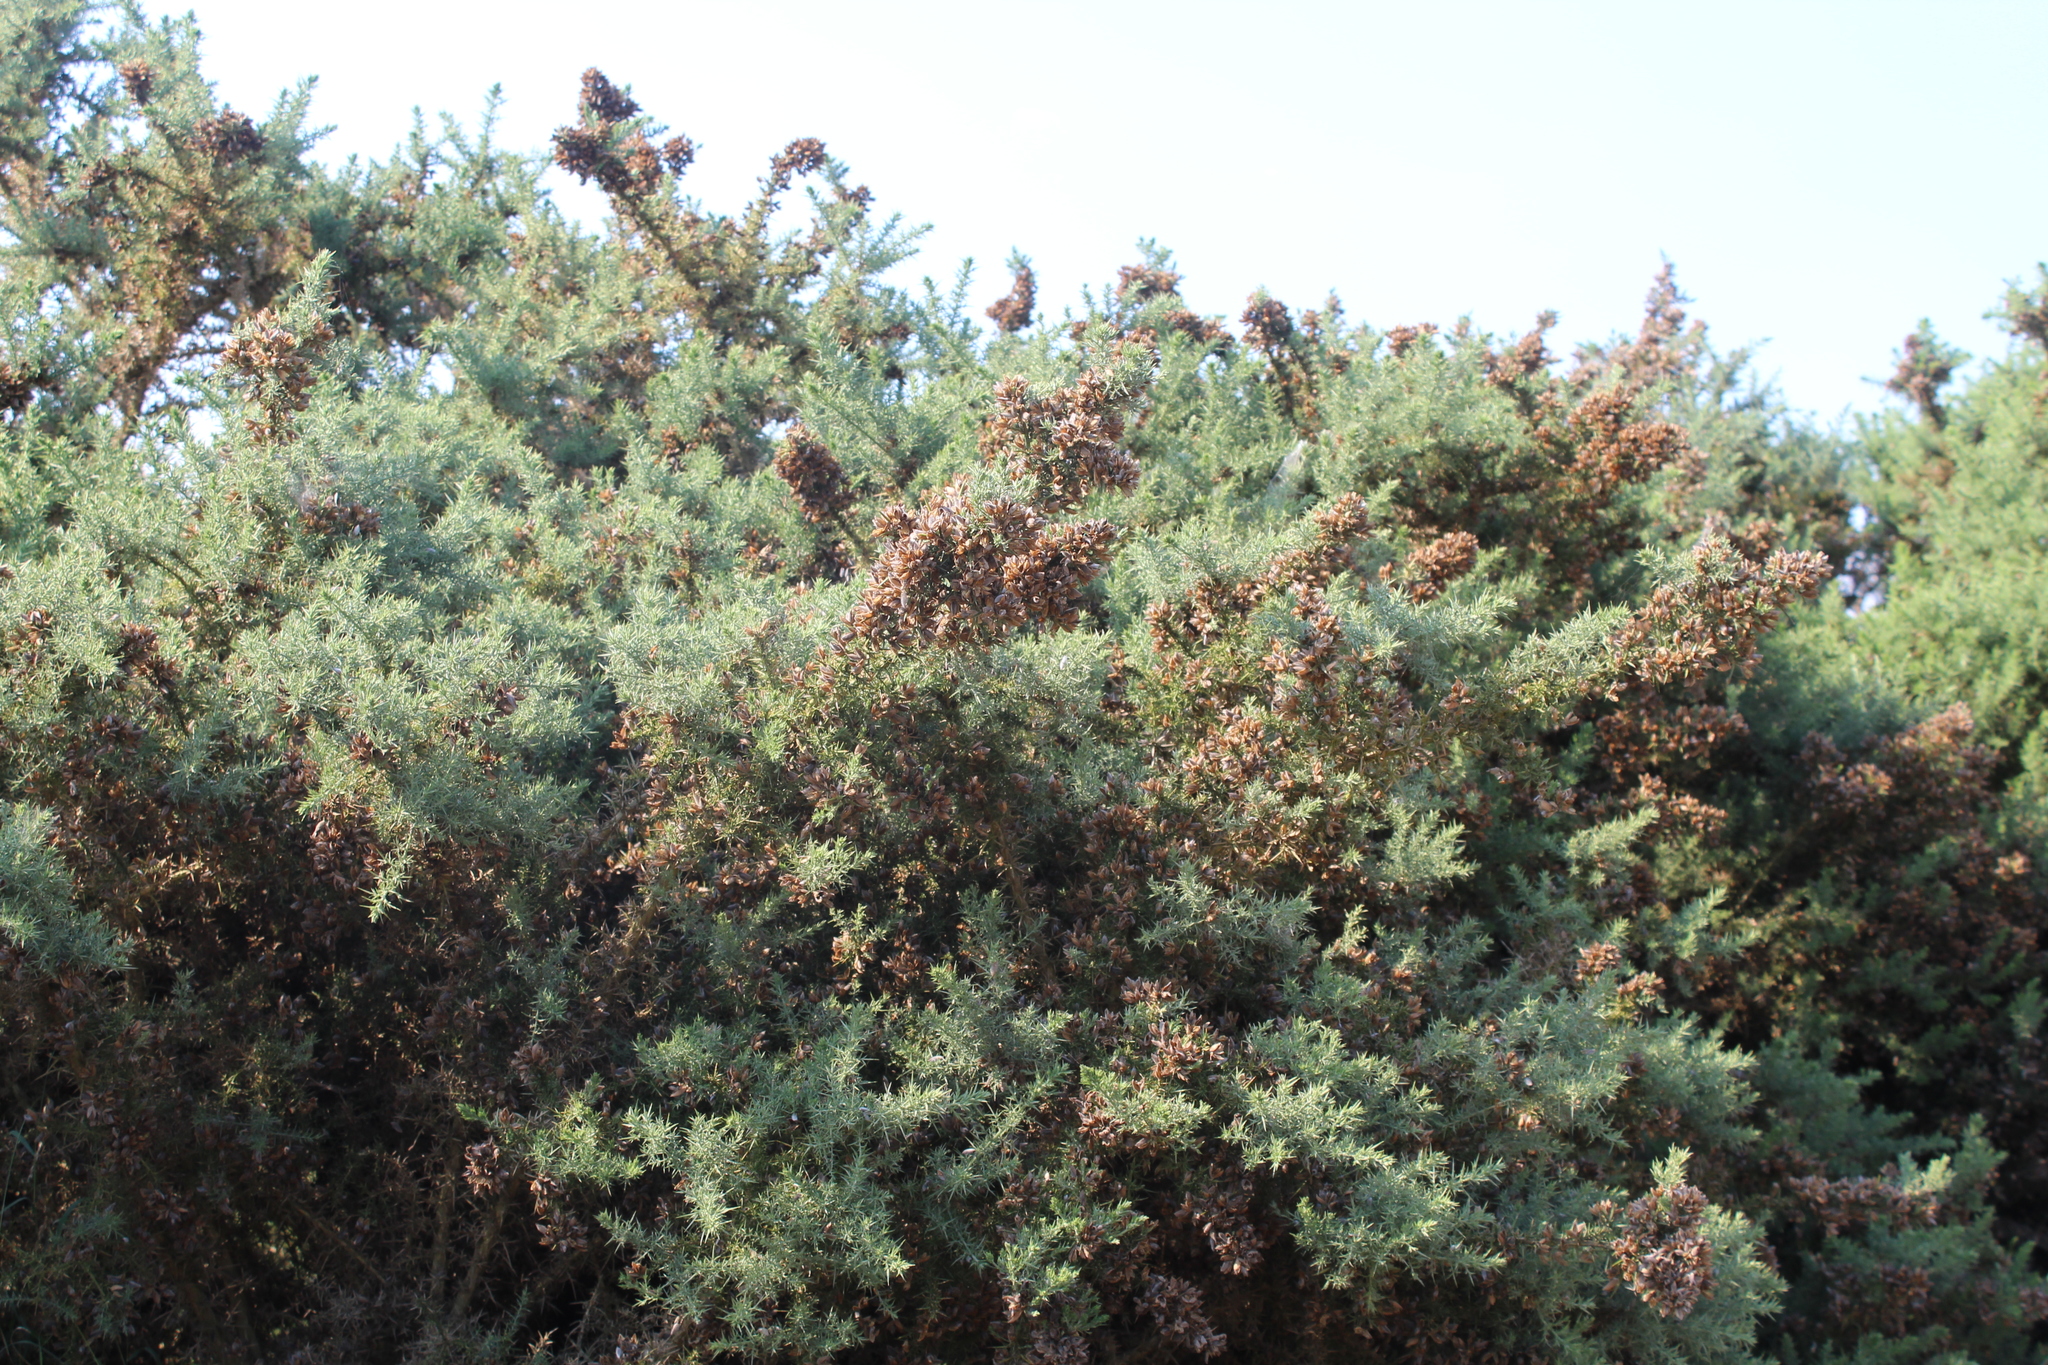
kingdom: Plantae
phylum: Tracheophyta
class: Magnoliopsida
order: Fabales
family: Fabaceae
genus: Ulex
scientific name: Ulex europaeus
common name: Common gorse
